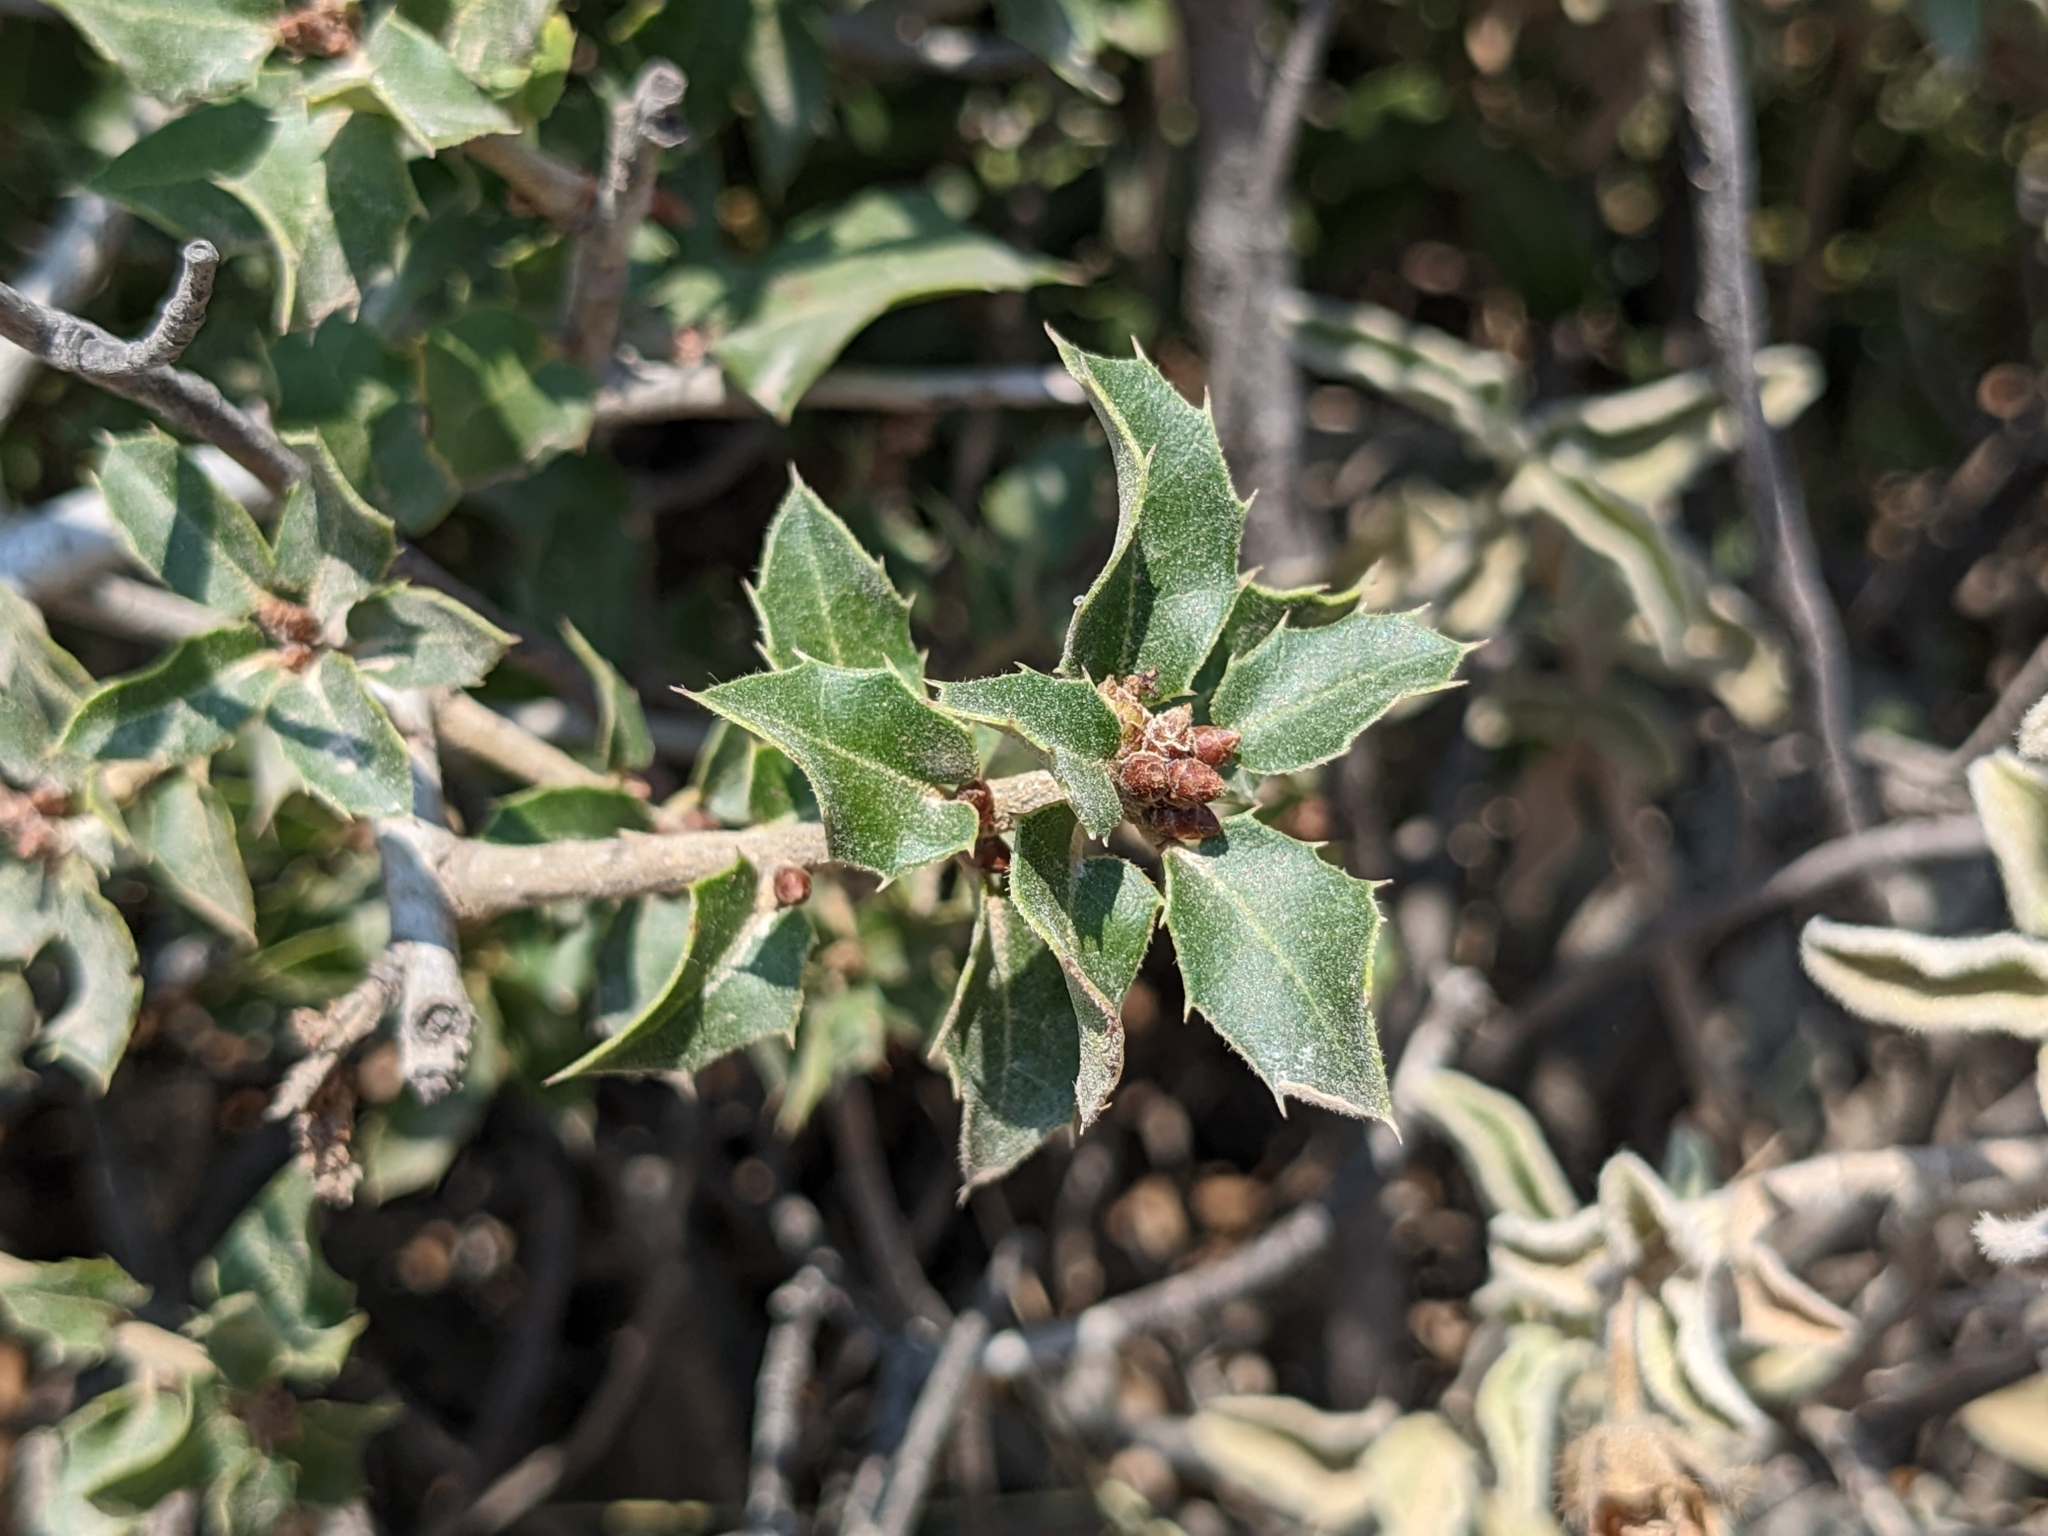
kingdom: Plantae
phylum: Tracheophyta
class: Magnoliopsida
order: Fagales
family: Fagaceae
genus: Quercus
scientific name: Quercus coccifera
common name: Kermes oak
